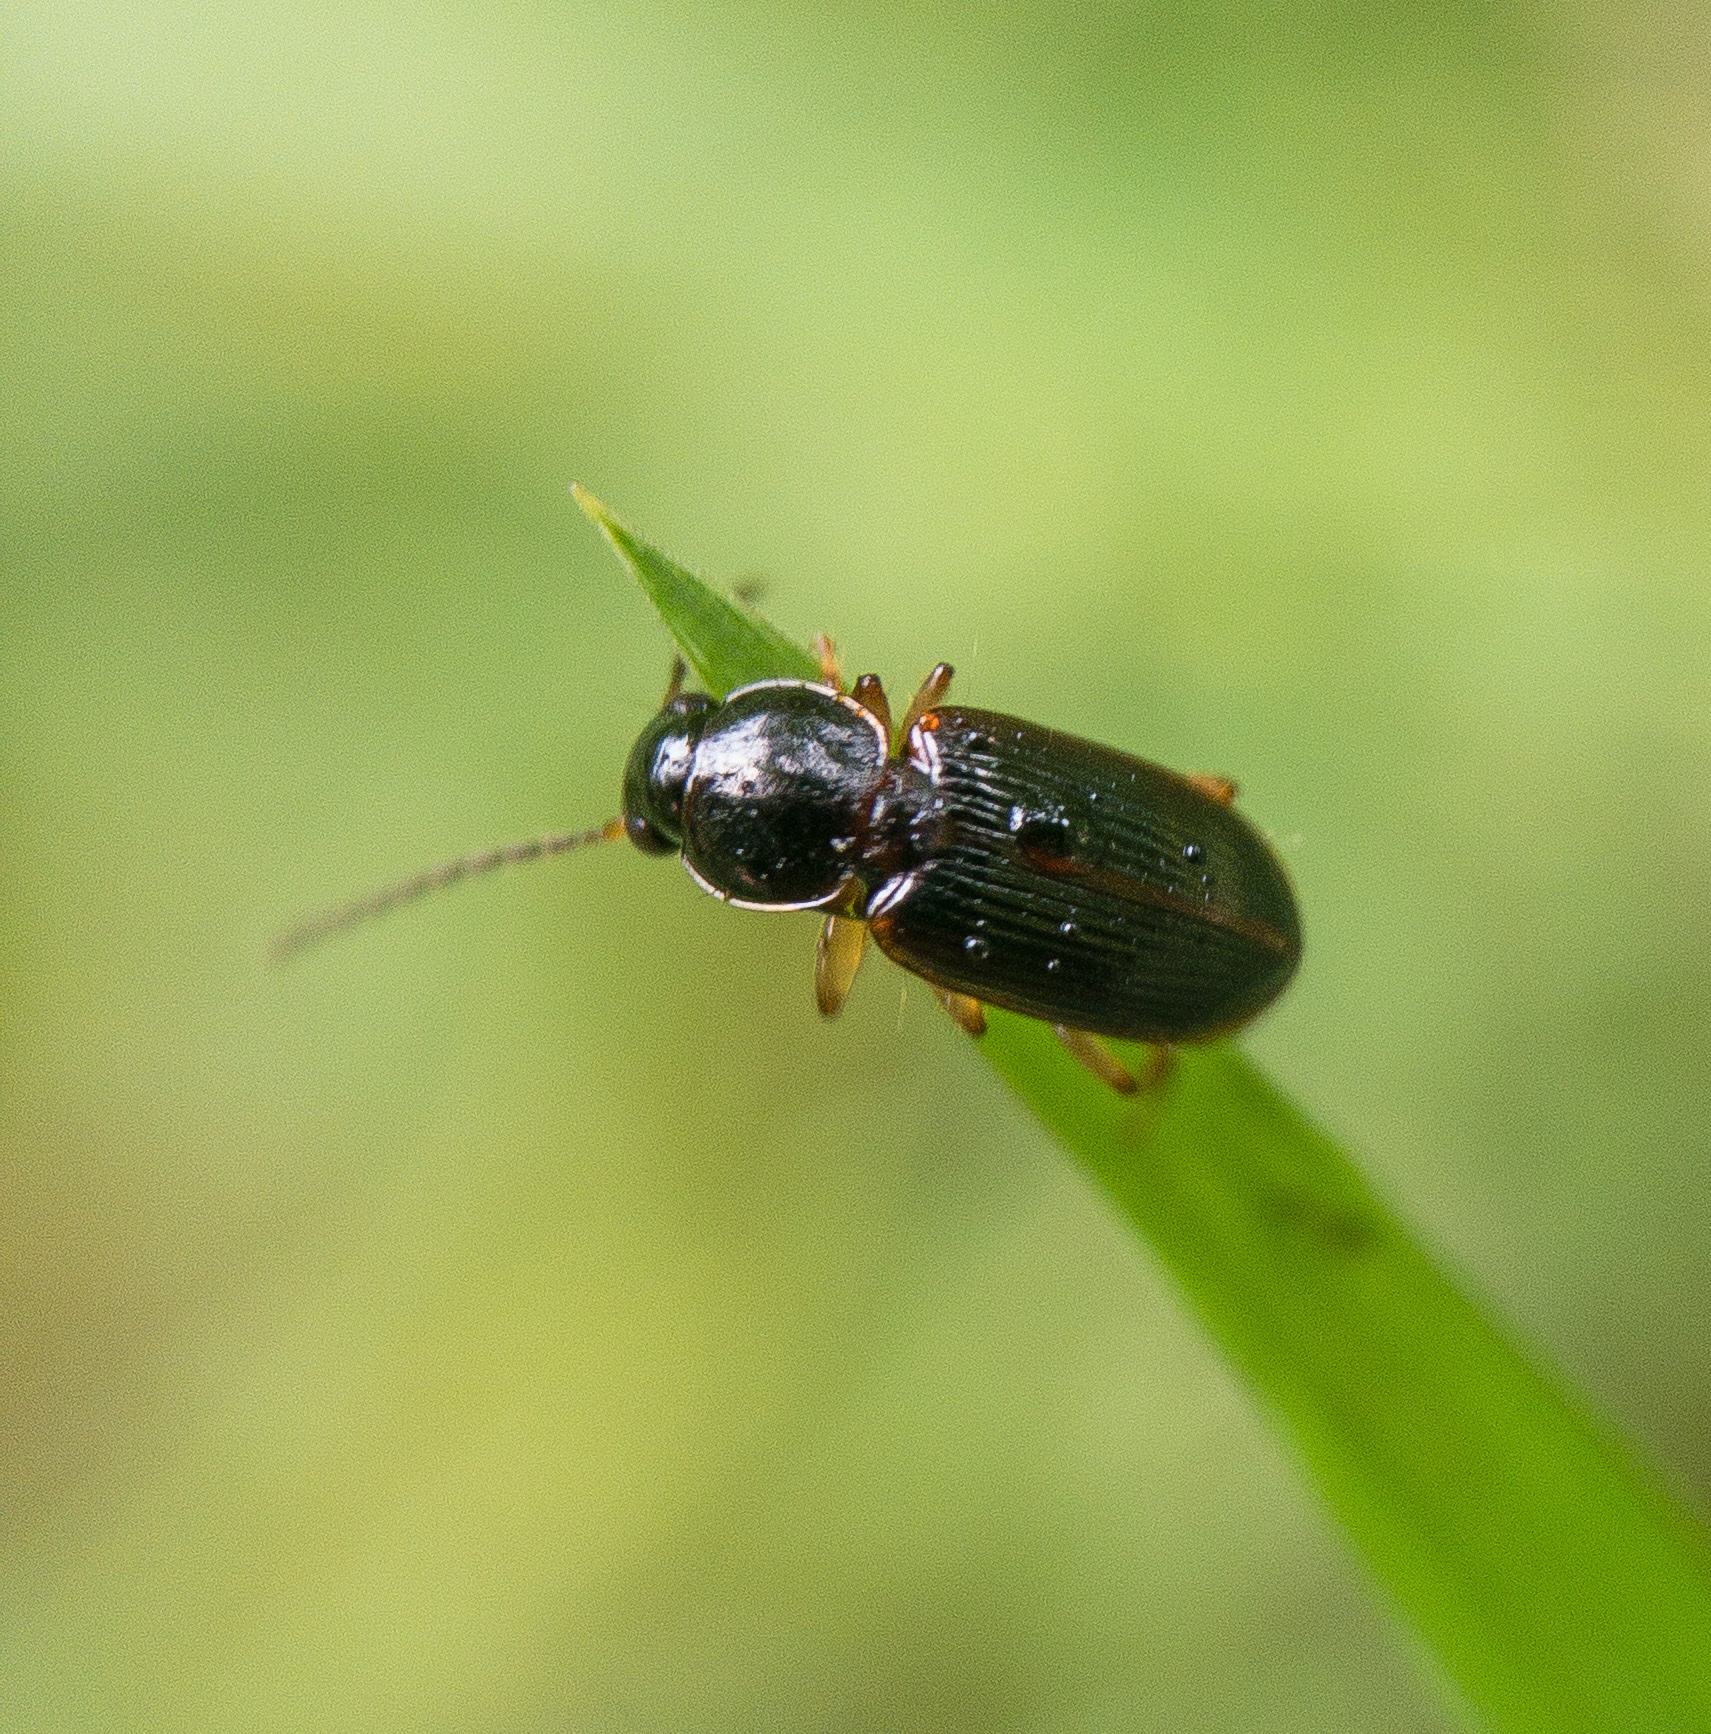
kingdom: Animalia
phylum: Arthropoda
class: Insecta
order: Coleoptera
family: Carabidae
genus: Stenolophus
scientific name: Stenolophus ochropezus
